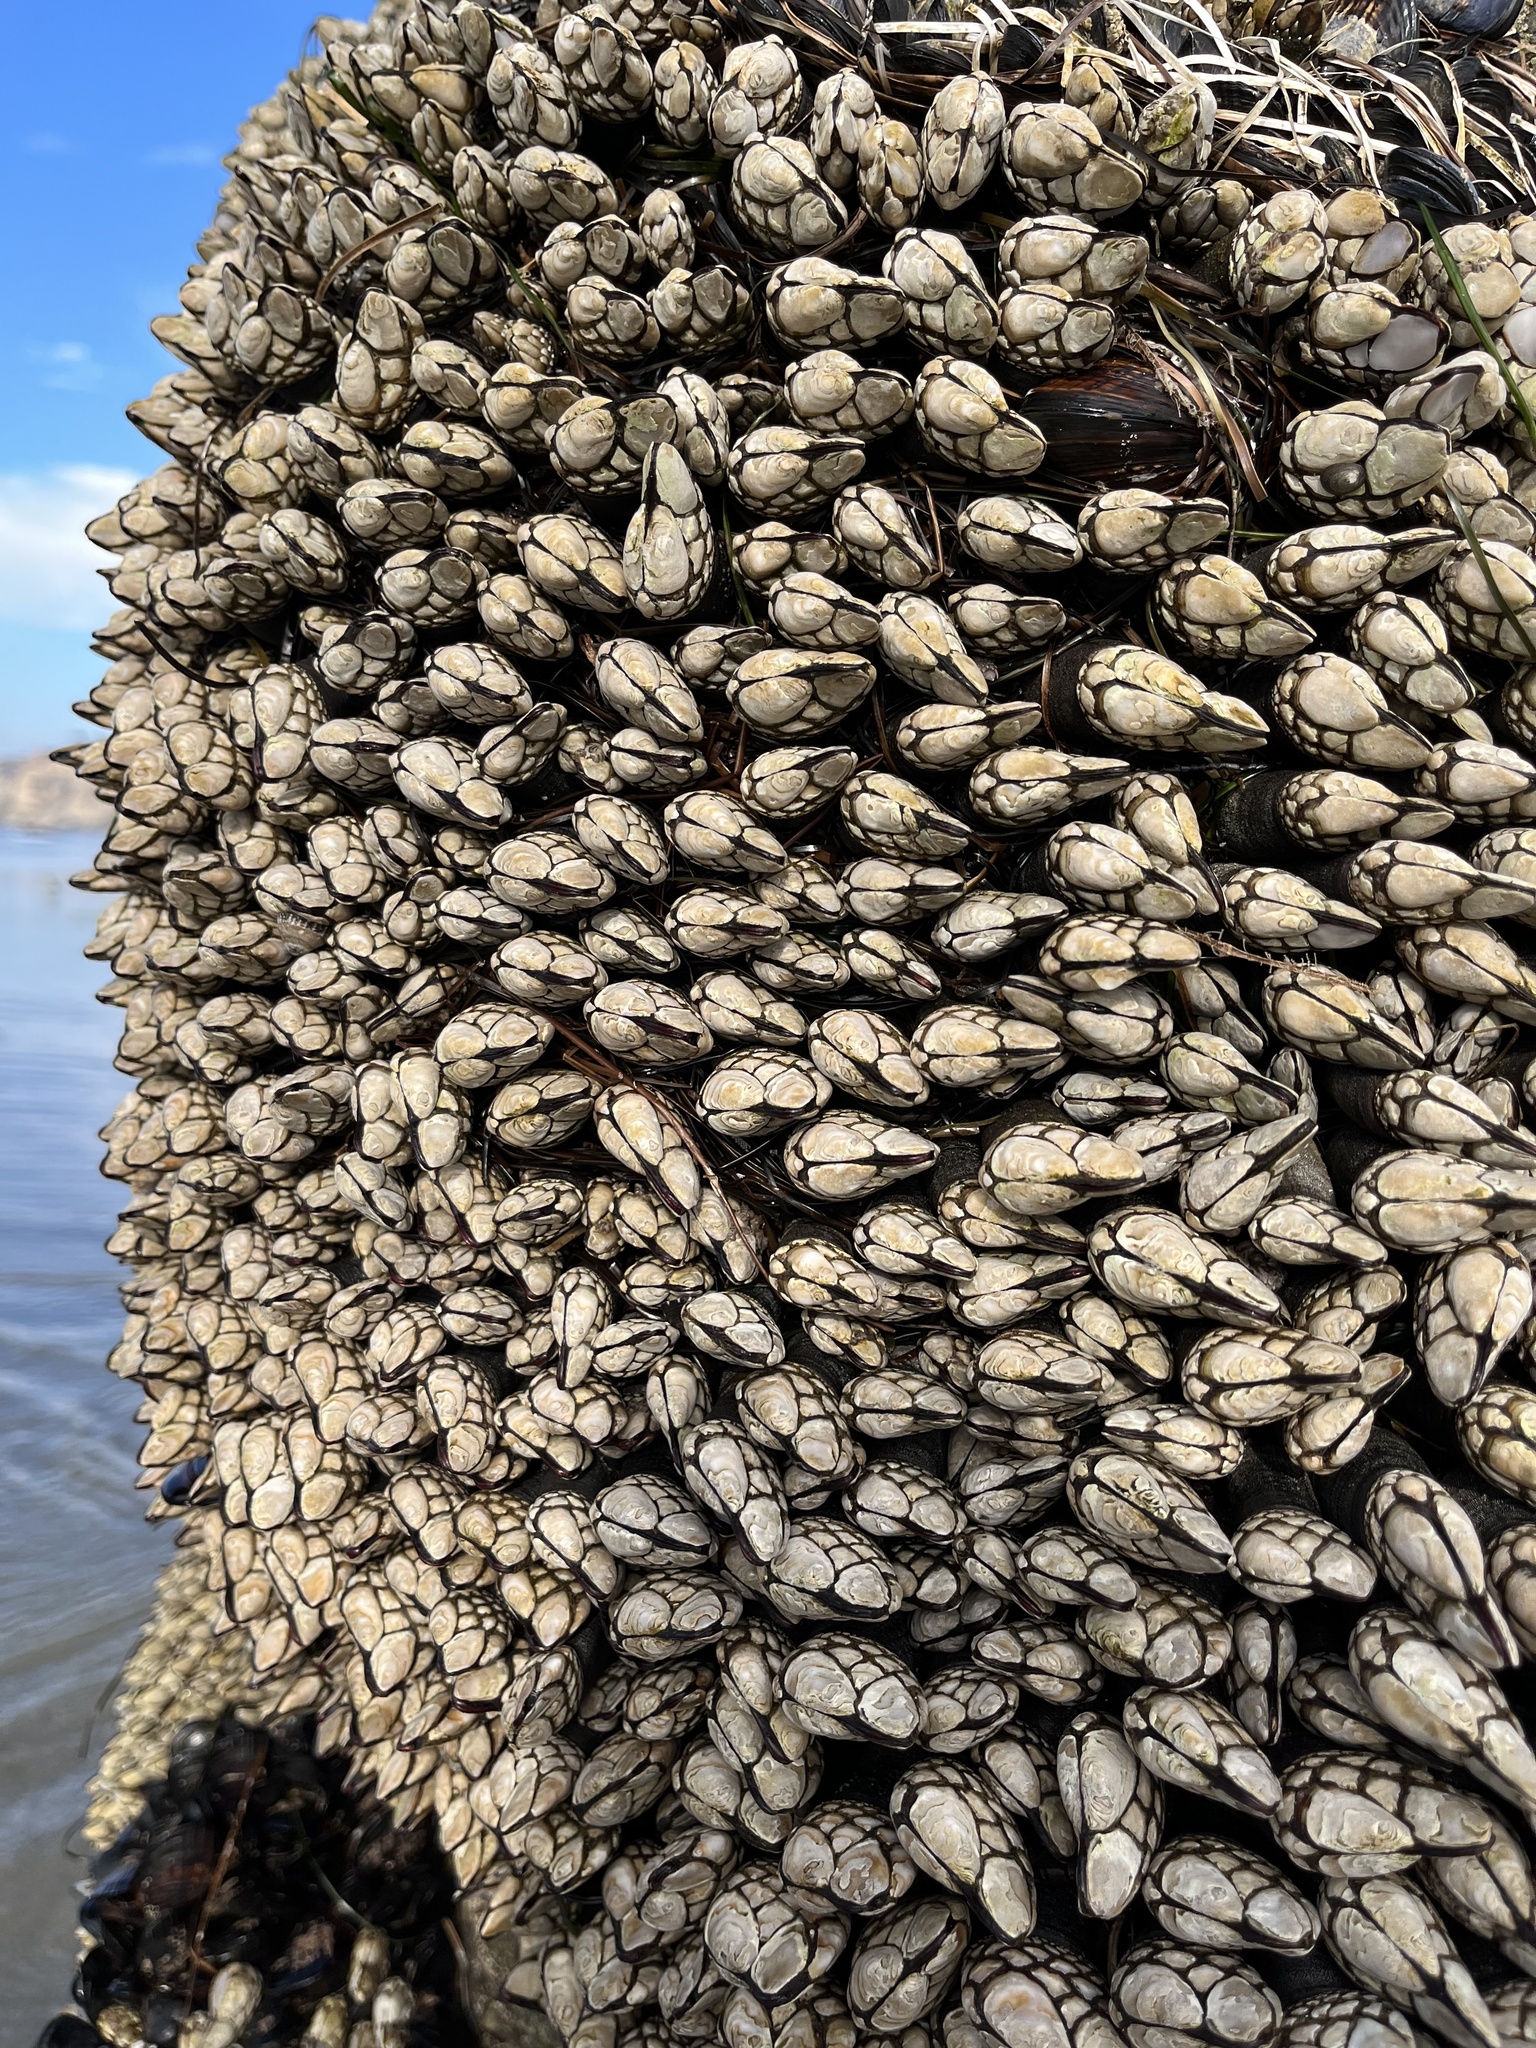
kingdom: Animalia
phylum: Arthropoda
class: Maxillopoda
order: Pedunculata
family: Pollicipedidae
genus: Pollicipes
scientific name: Pollicipes polymerus
